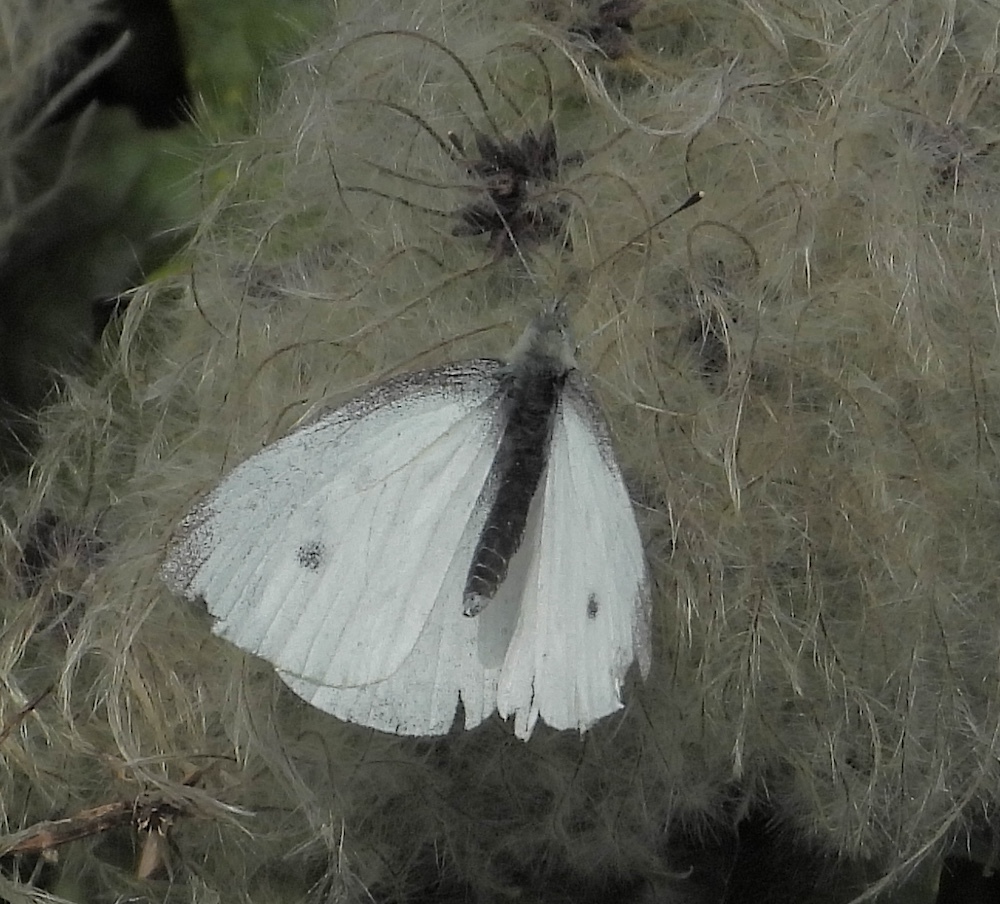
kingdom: Animalia
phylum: Arthropoda
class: Insecta
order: Lepidoptera
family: Pieridae
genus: Pieris
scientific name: Pieris rapae
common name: Small white
